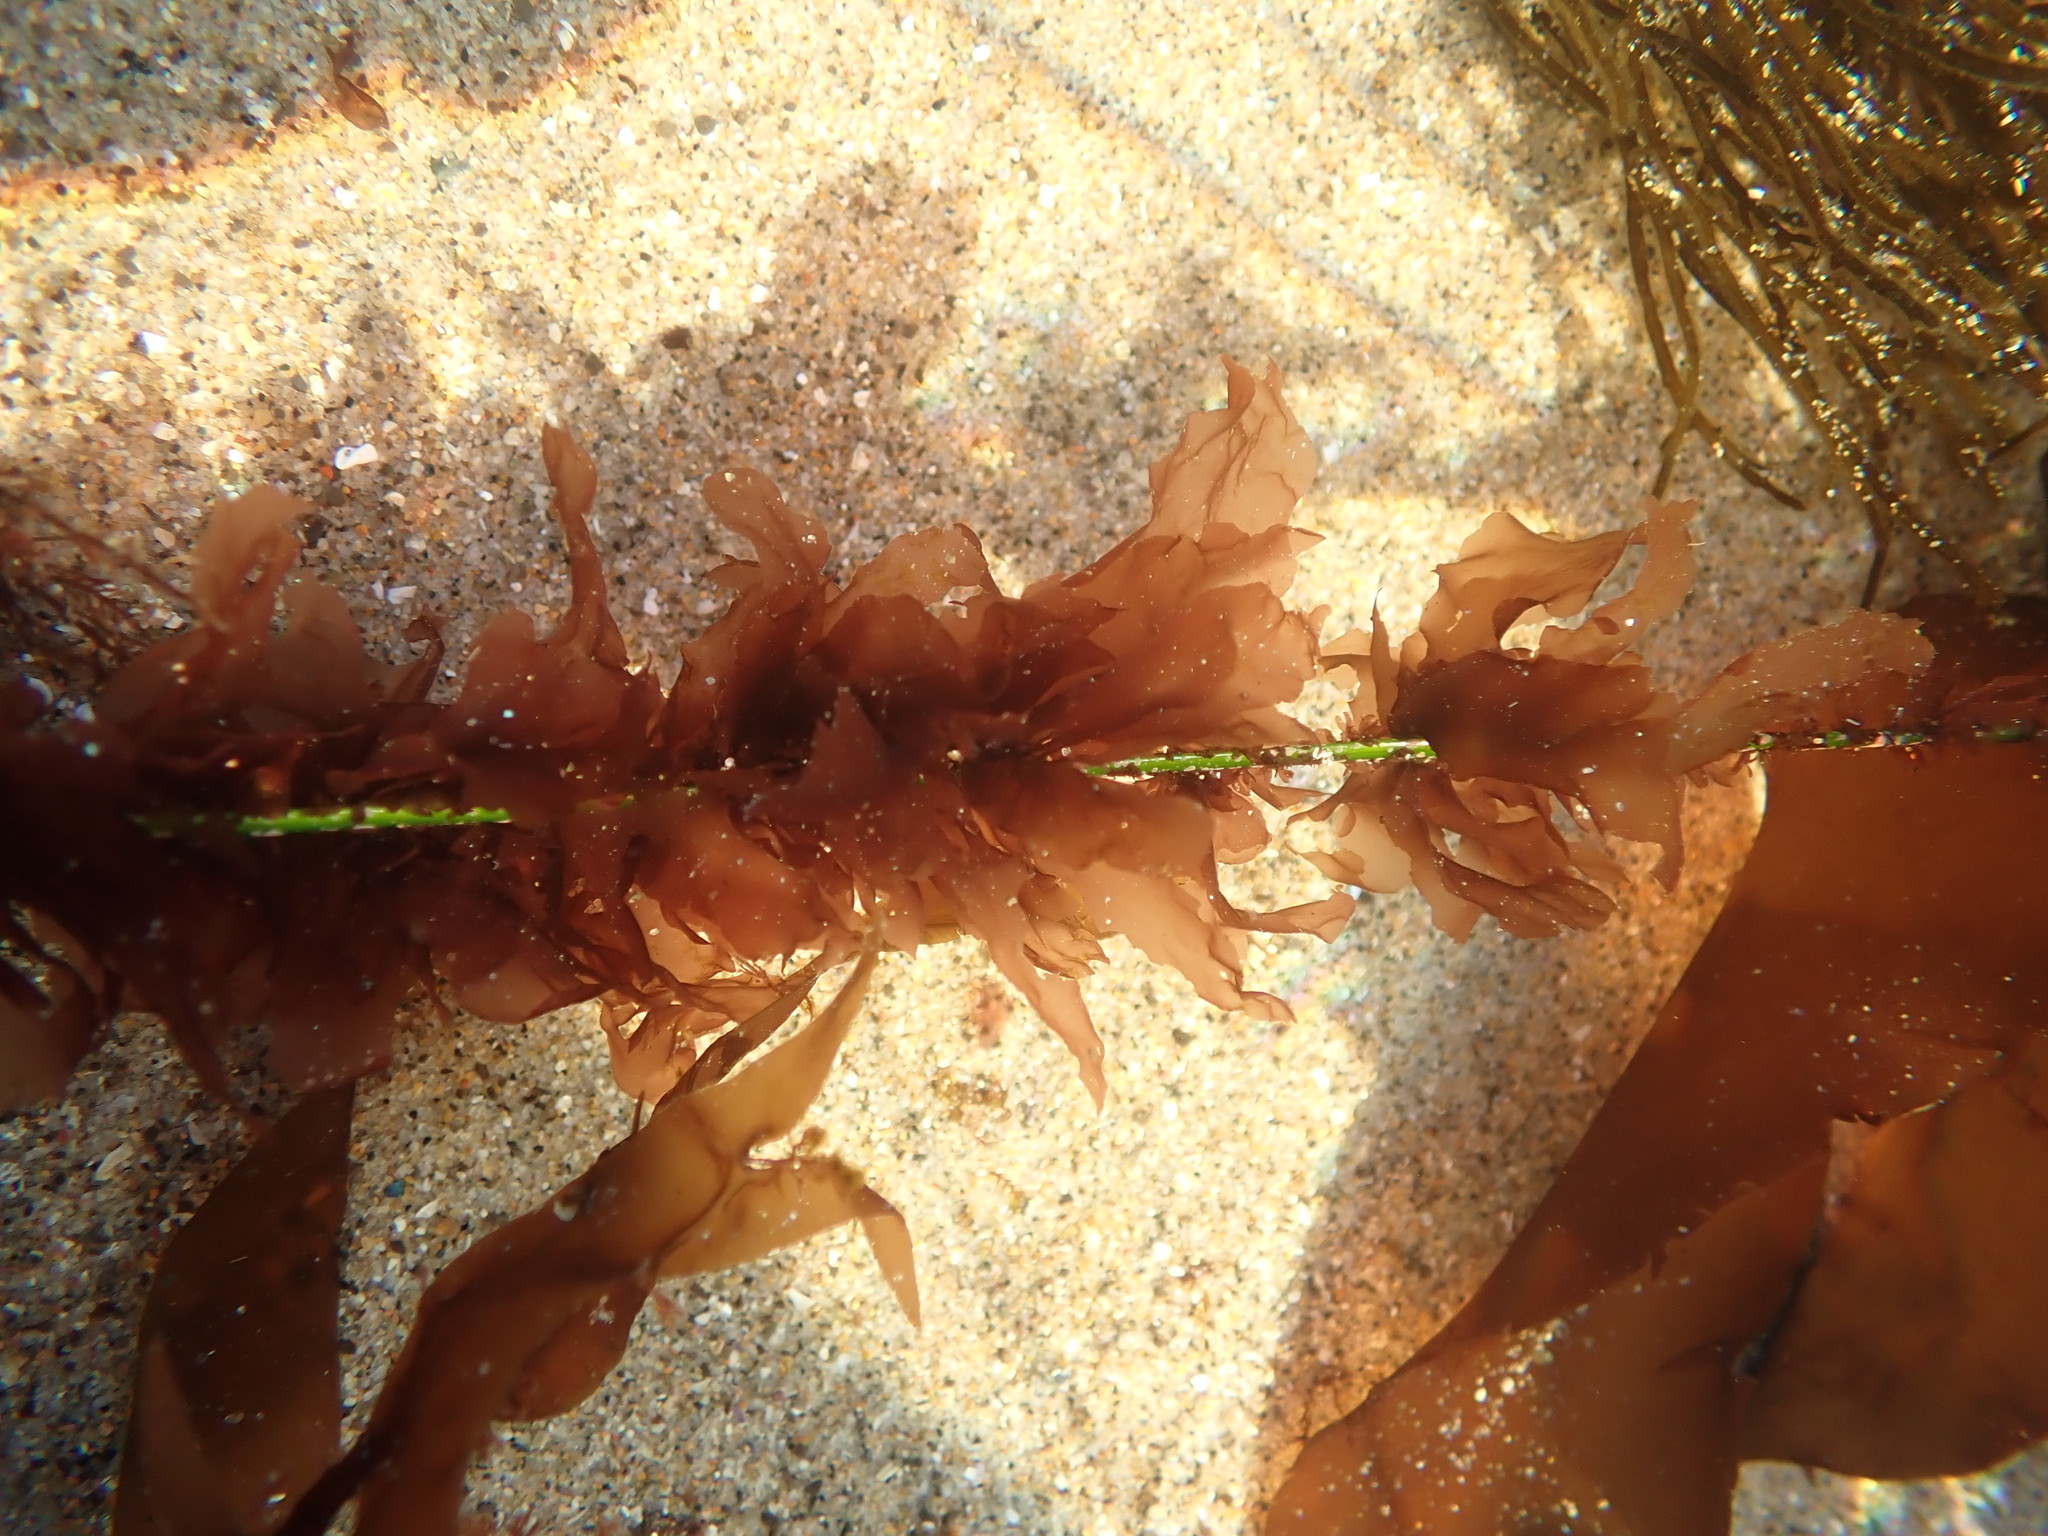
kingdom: Plantae
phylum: Rhodophyta
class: Compsopogonophyceae
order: Erythropeltidales
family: Erythrotrichiaceae
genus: Smithora
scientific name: Smithora naiadum
